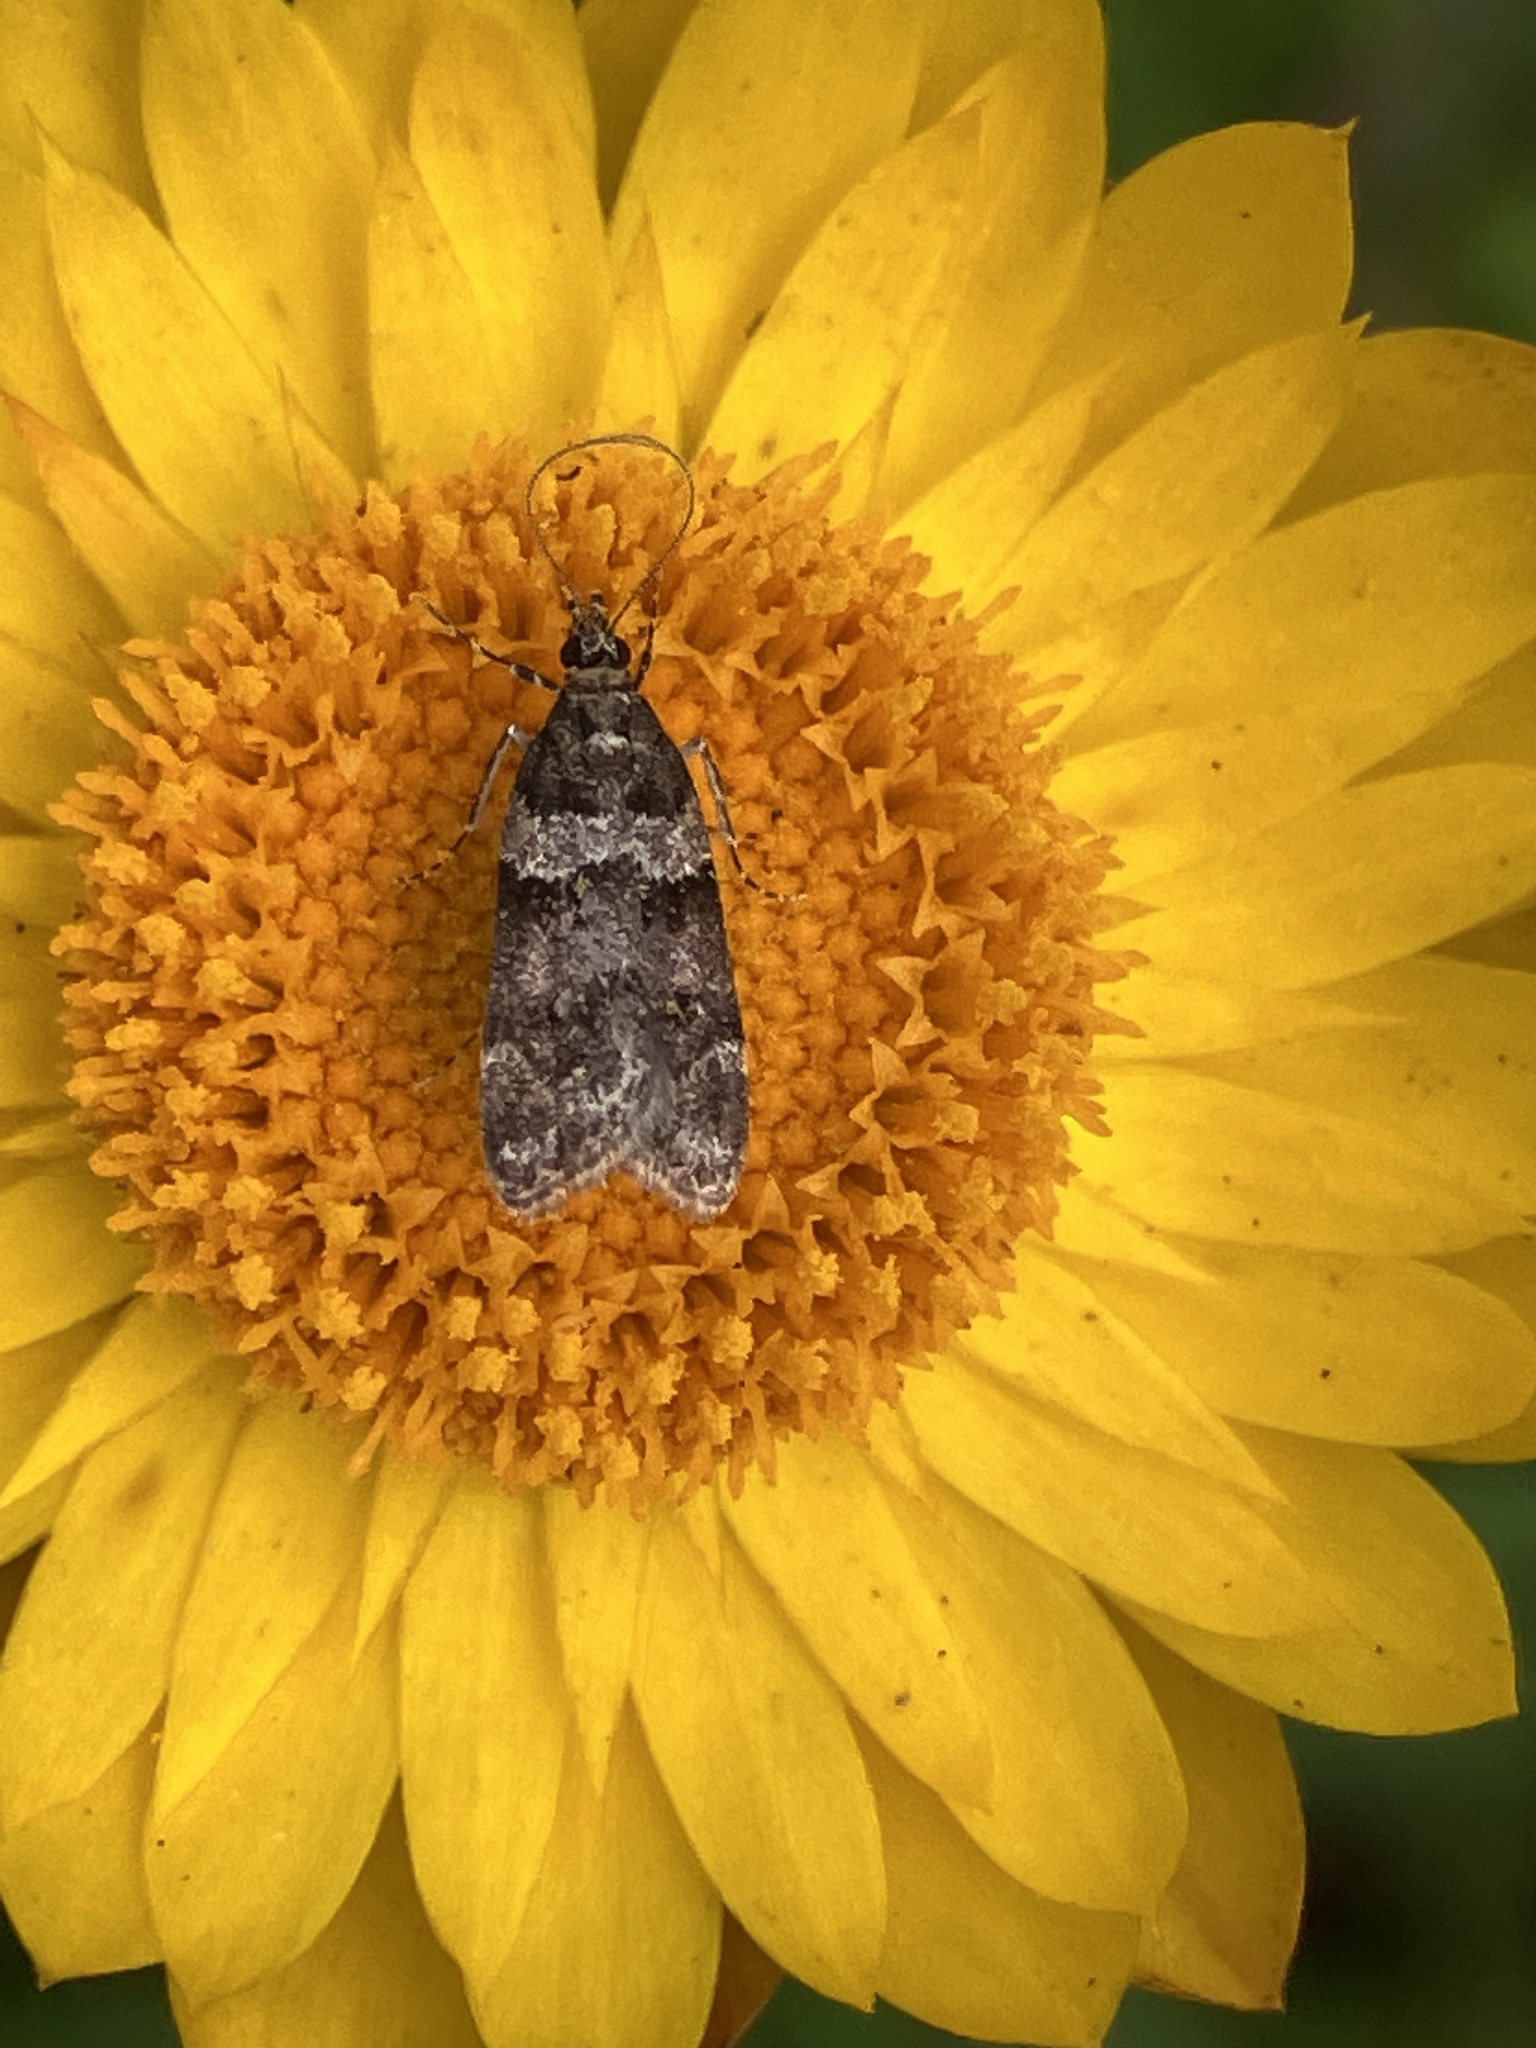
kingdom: Animalia
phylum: Arthropoda
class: Insecta
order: Lepidoptera
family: Crambidae
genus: Scoparia
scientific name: Scoparia nigritalis
